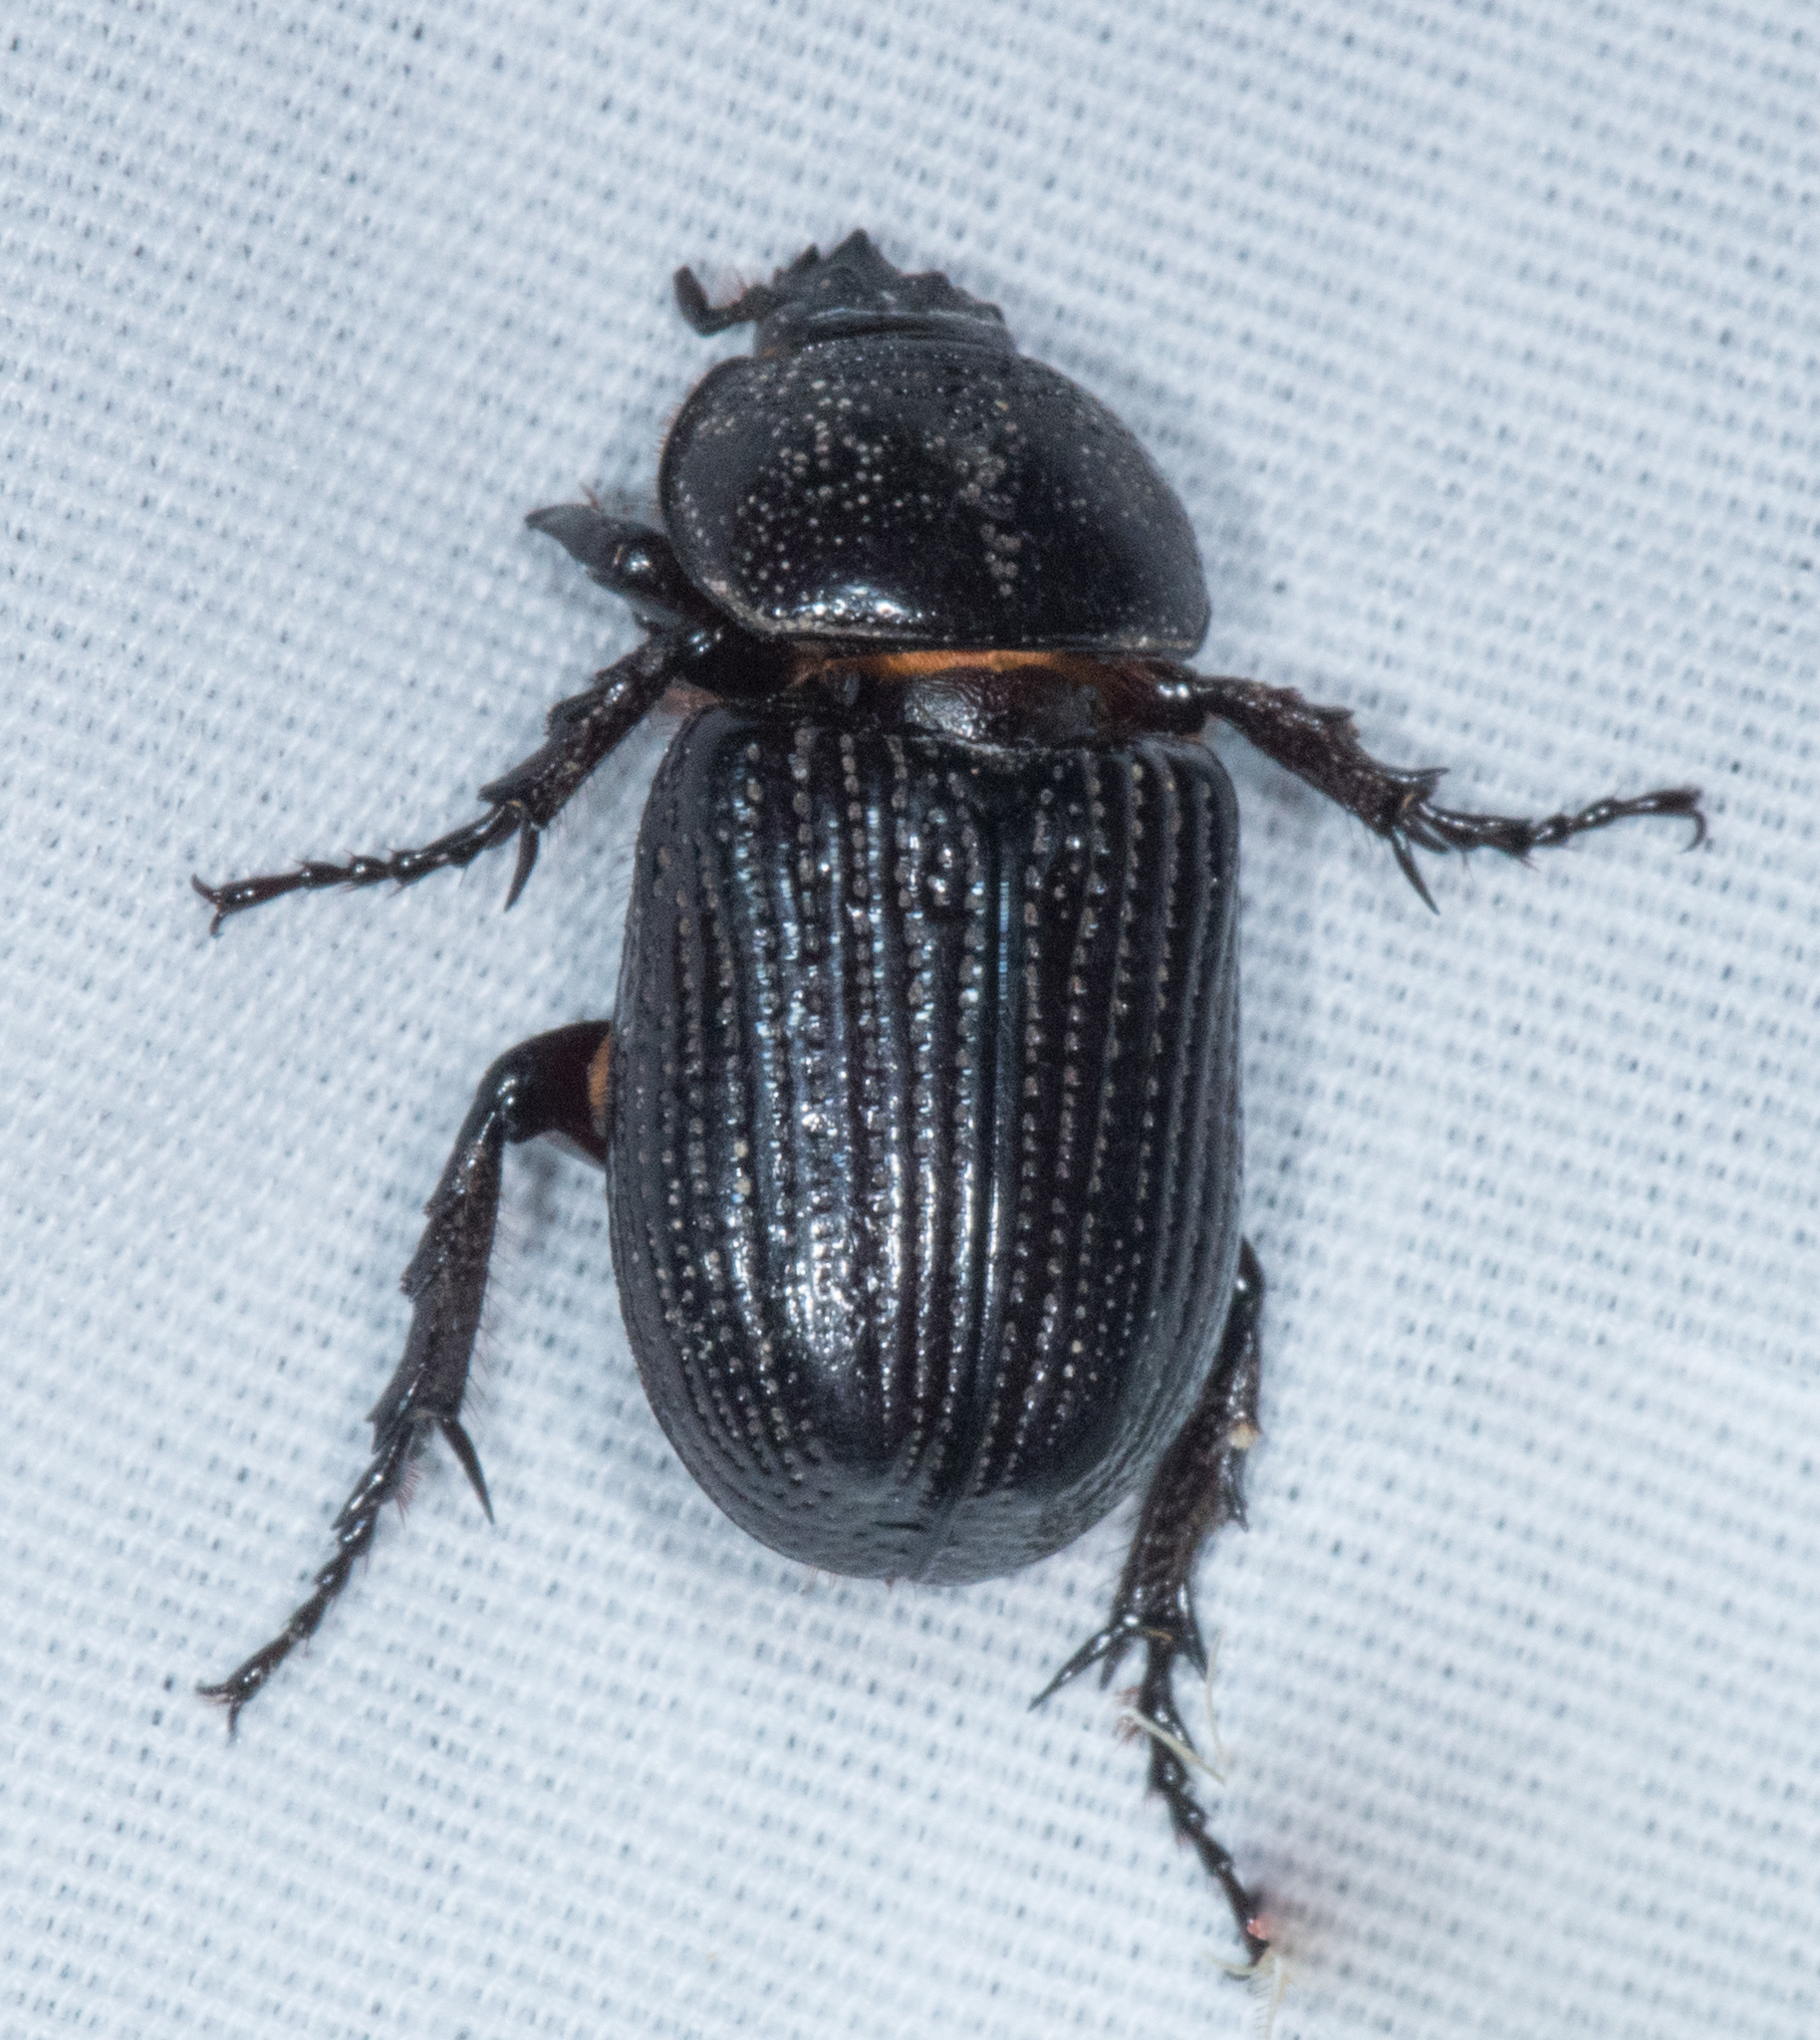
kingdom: Animalia
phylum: Arthropoda
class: Insecta
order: Coleoptera
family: Scarabaeidae
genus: Hemiphileurus
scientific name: Hemiphileurus illatus
